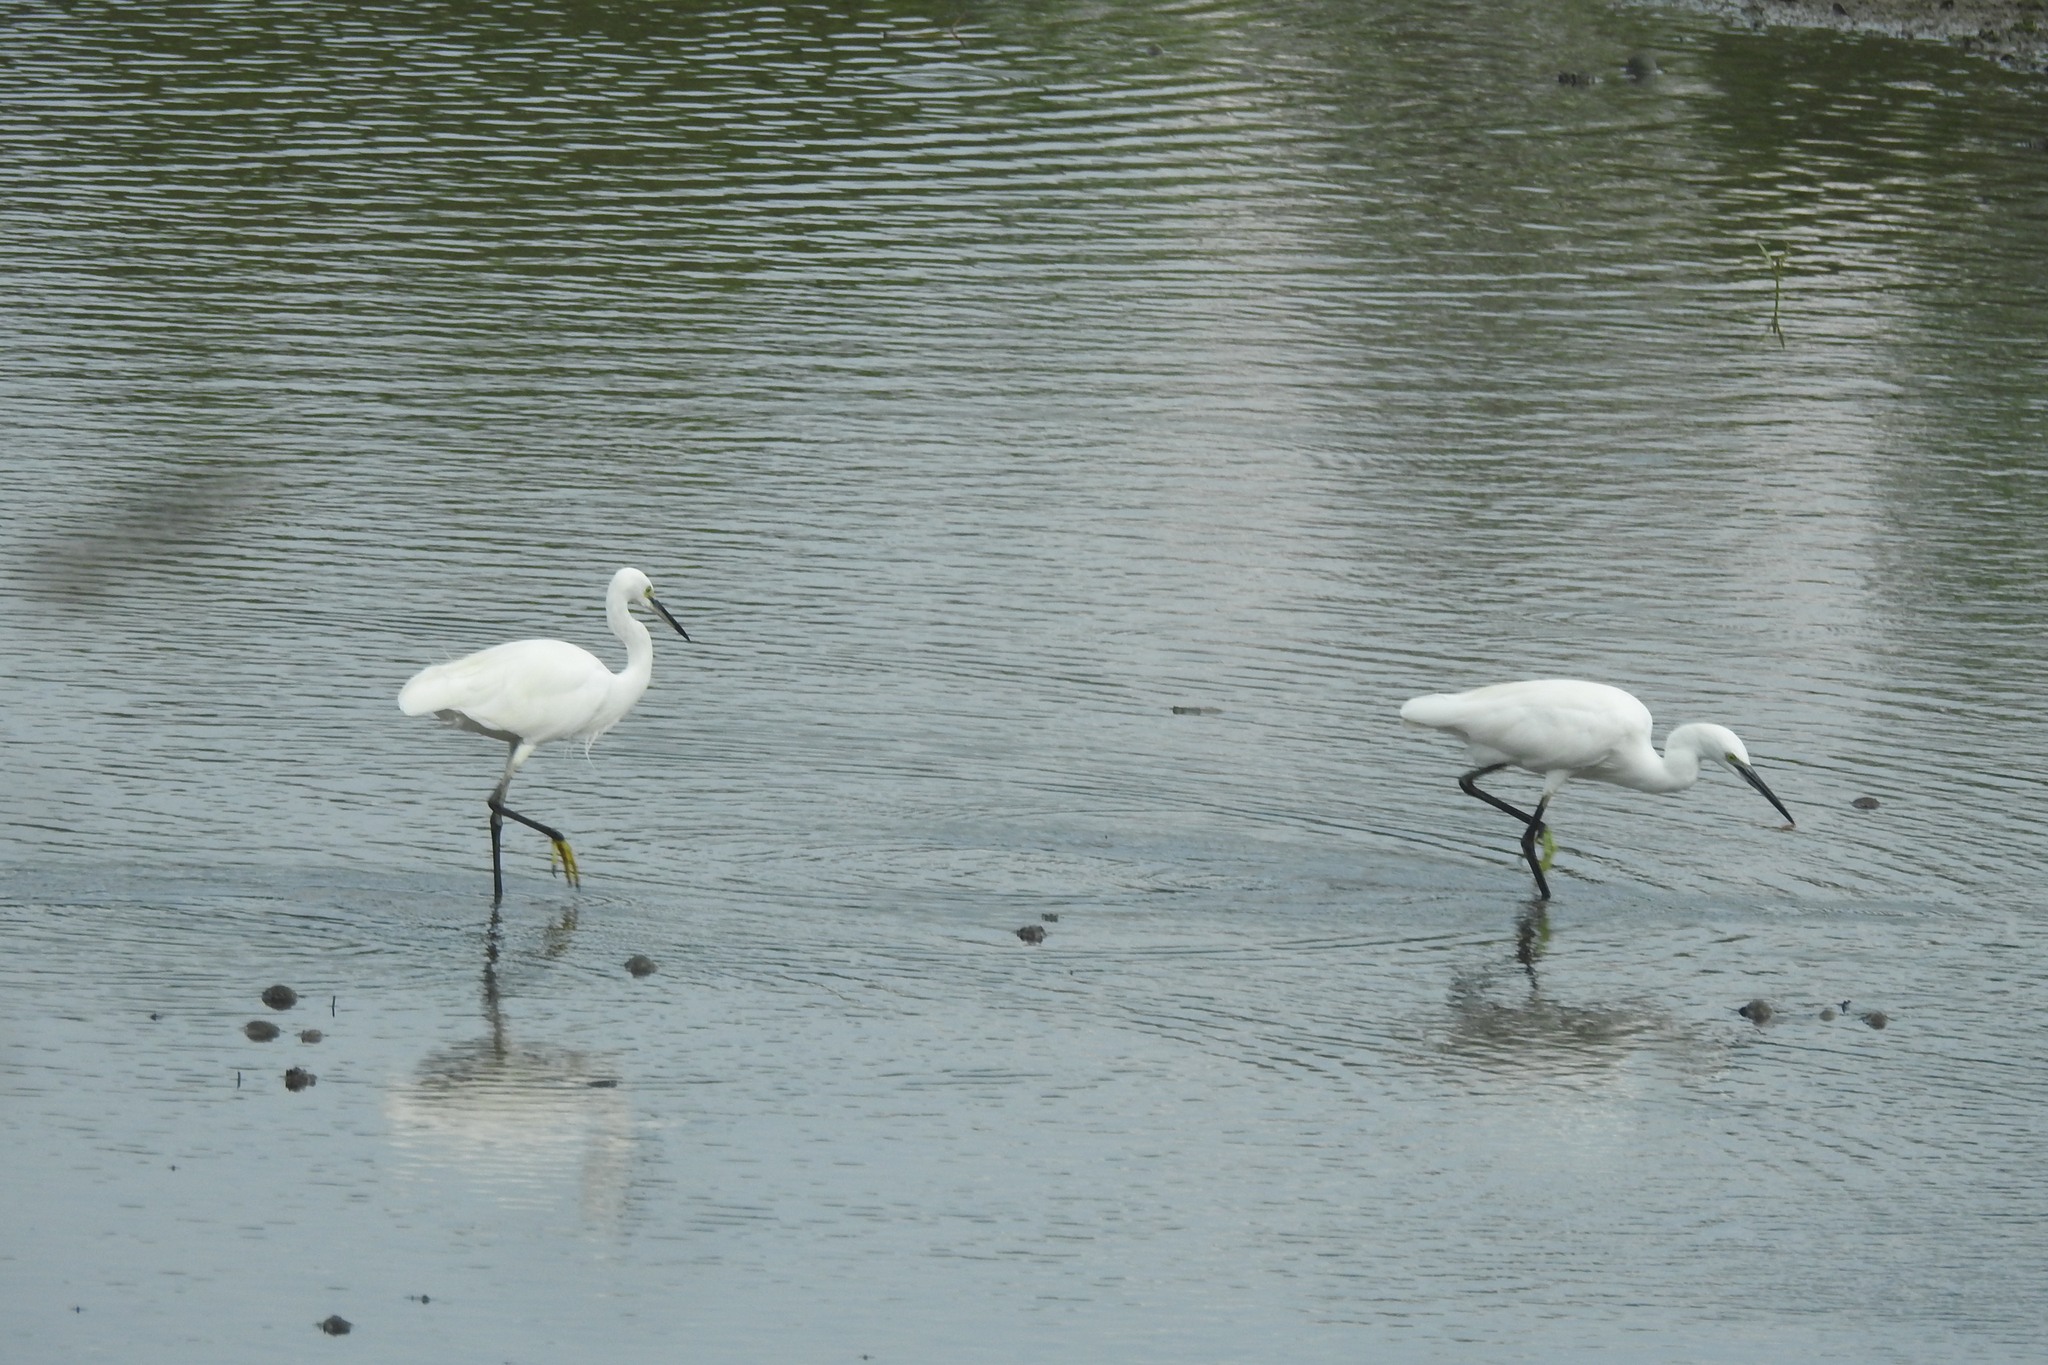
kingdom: Animalia
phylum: Chordata
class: Aves
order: Pelecaniformes
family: Ardeidae
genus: Egretta
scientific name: Egretta garzetta
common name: Little egret
